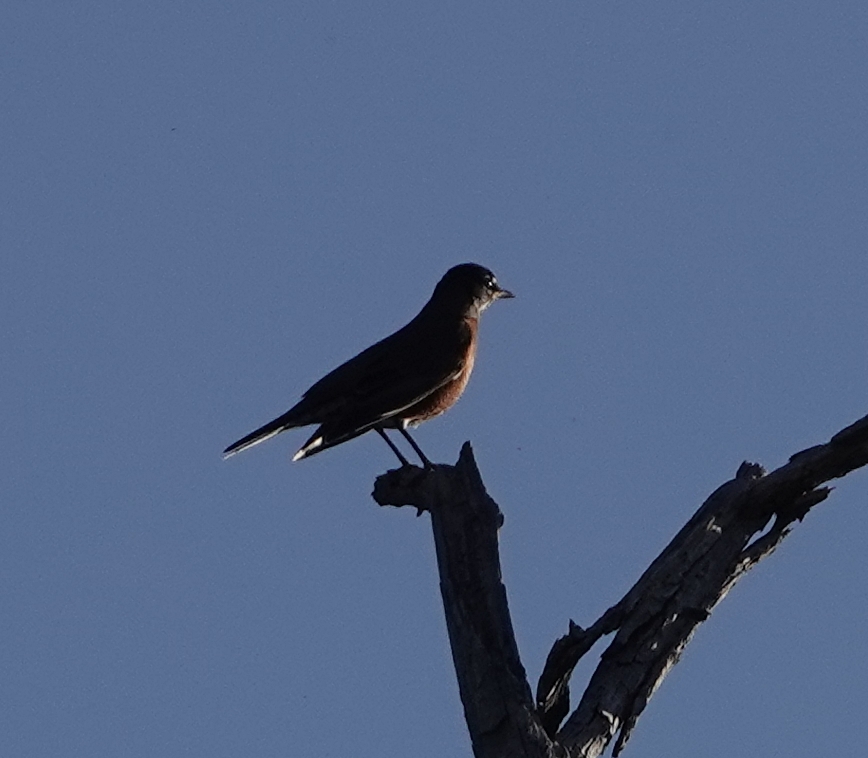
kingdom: Animalia
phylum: Chordata
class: Aves
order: Passeriformes
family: Turdidae
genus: Turdus
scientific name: Turdus migratorius
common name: American robin
